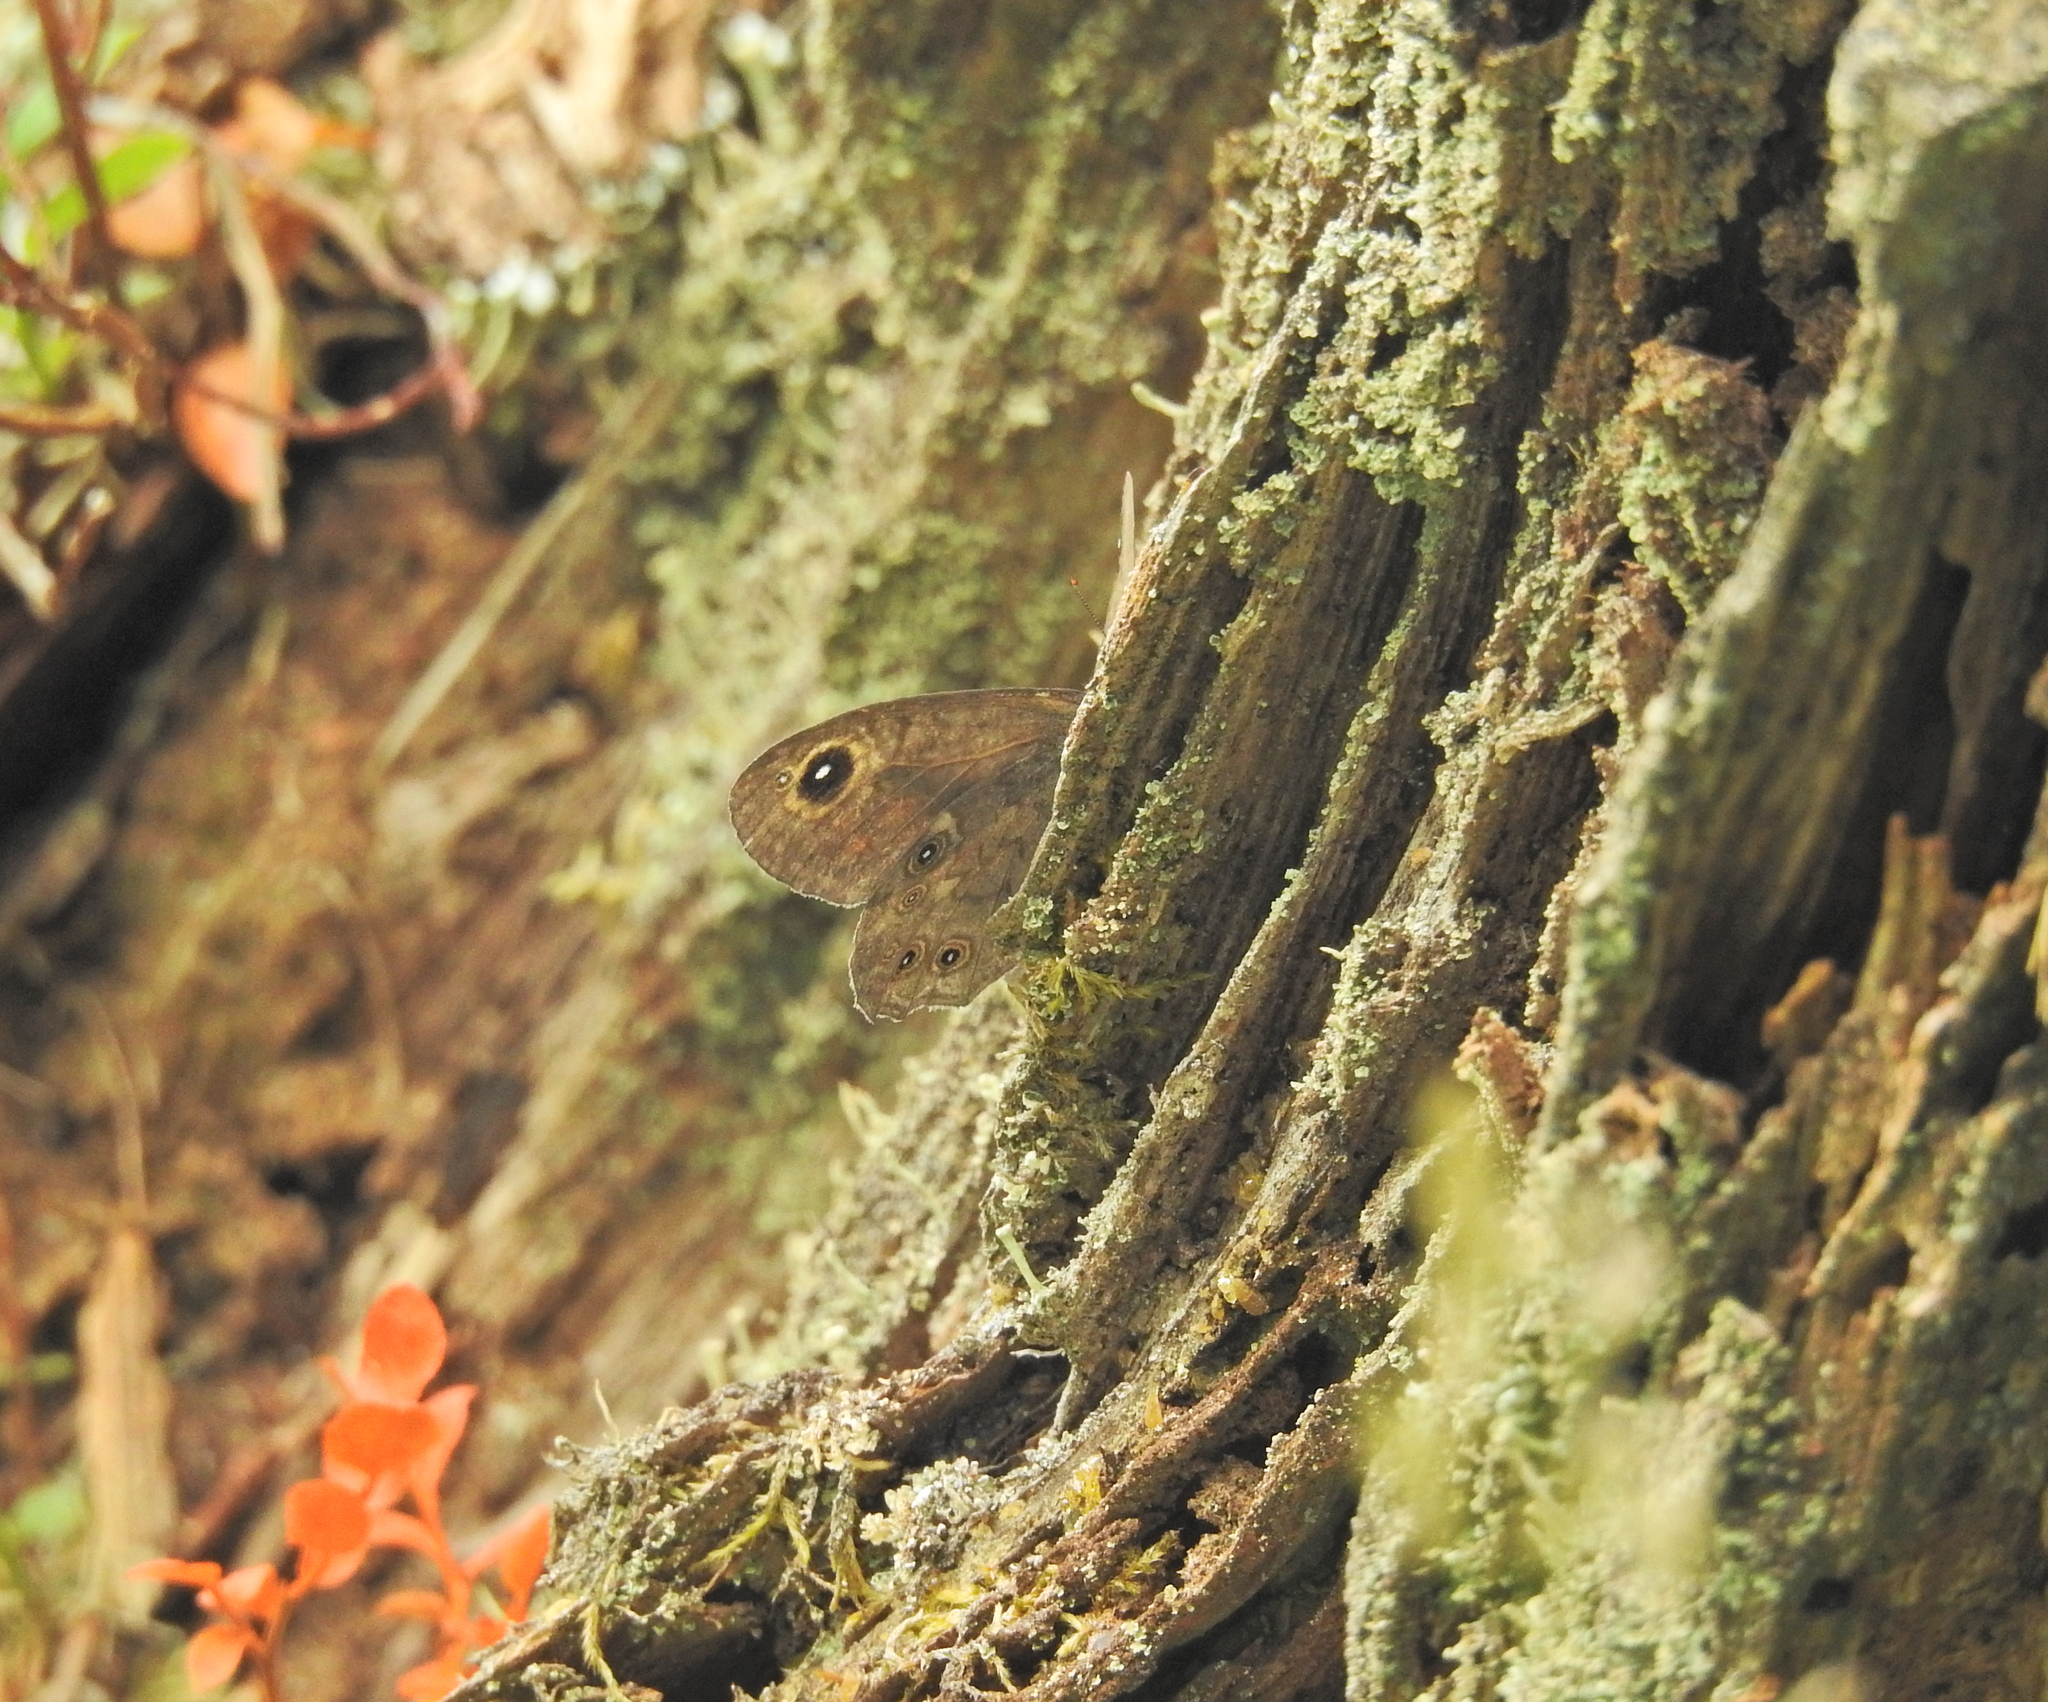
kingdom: Animalia
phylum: Arthropoda
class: Insecta
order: Lepidoptera
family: Nymphalidae
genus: Pararge
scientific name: Pararge Lasiommata maera
